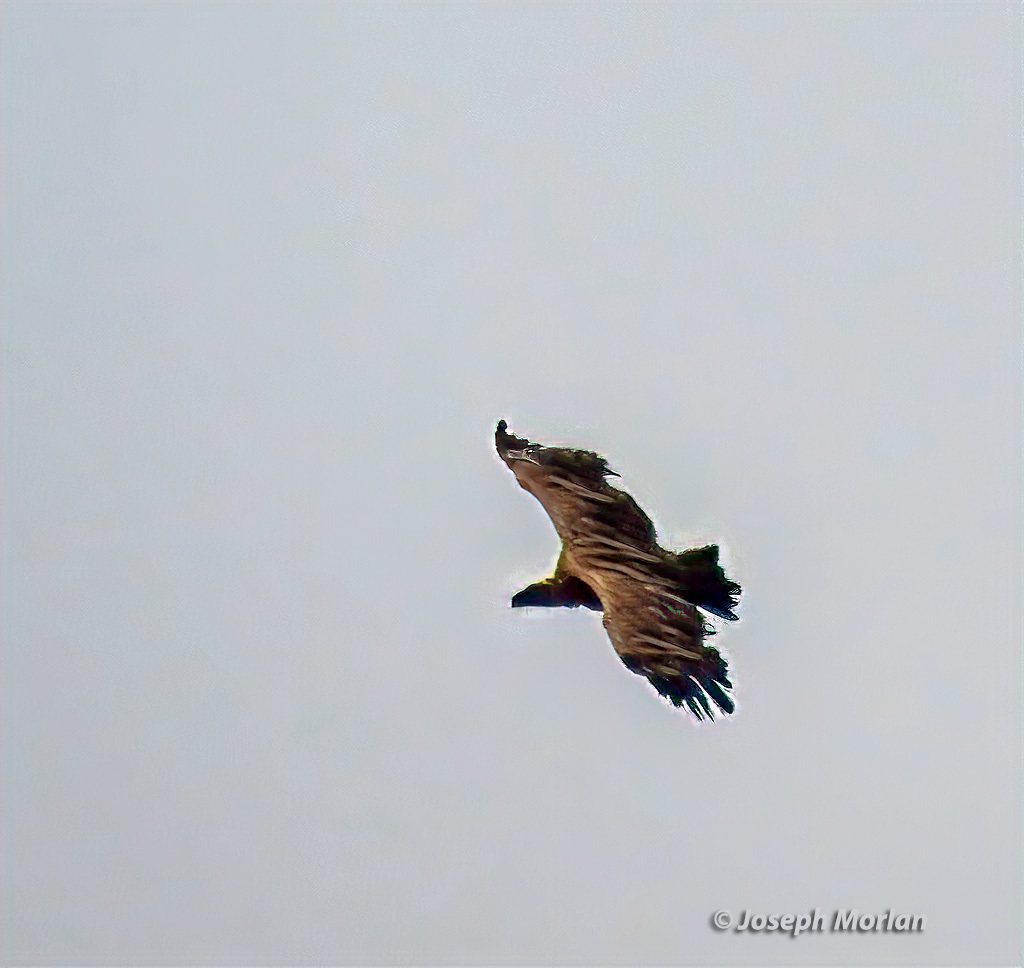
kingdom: Animalia
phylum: Chordata
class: Aves
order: Accipitriformes
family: Accipitridae
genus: Gyps
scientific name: Gyps africanus
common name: White-backed vulture
